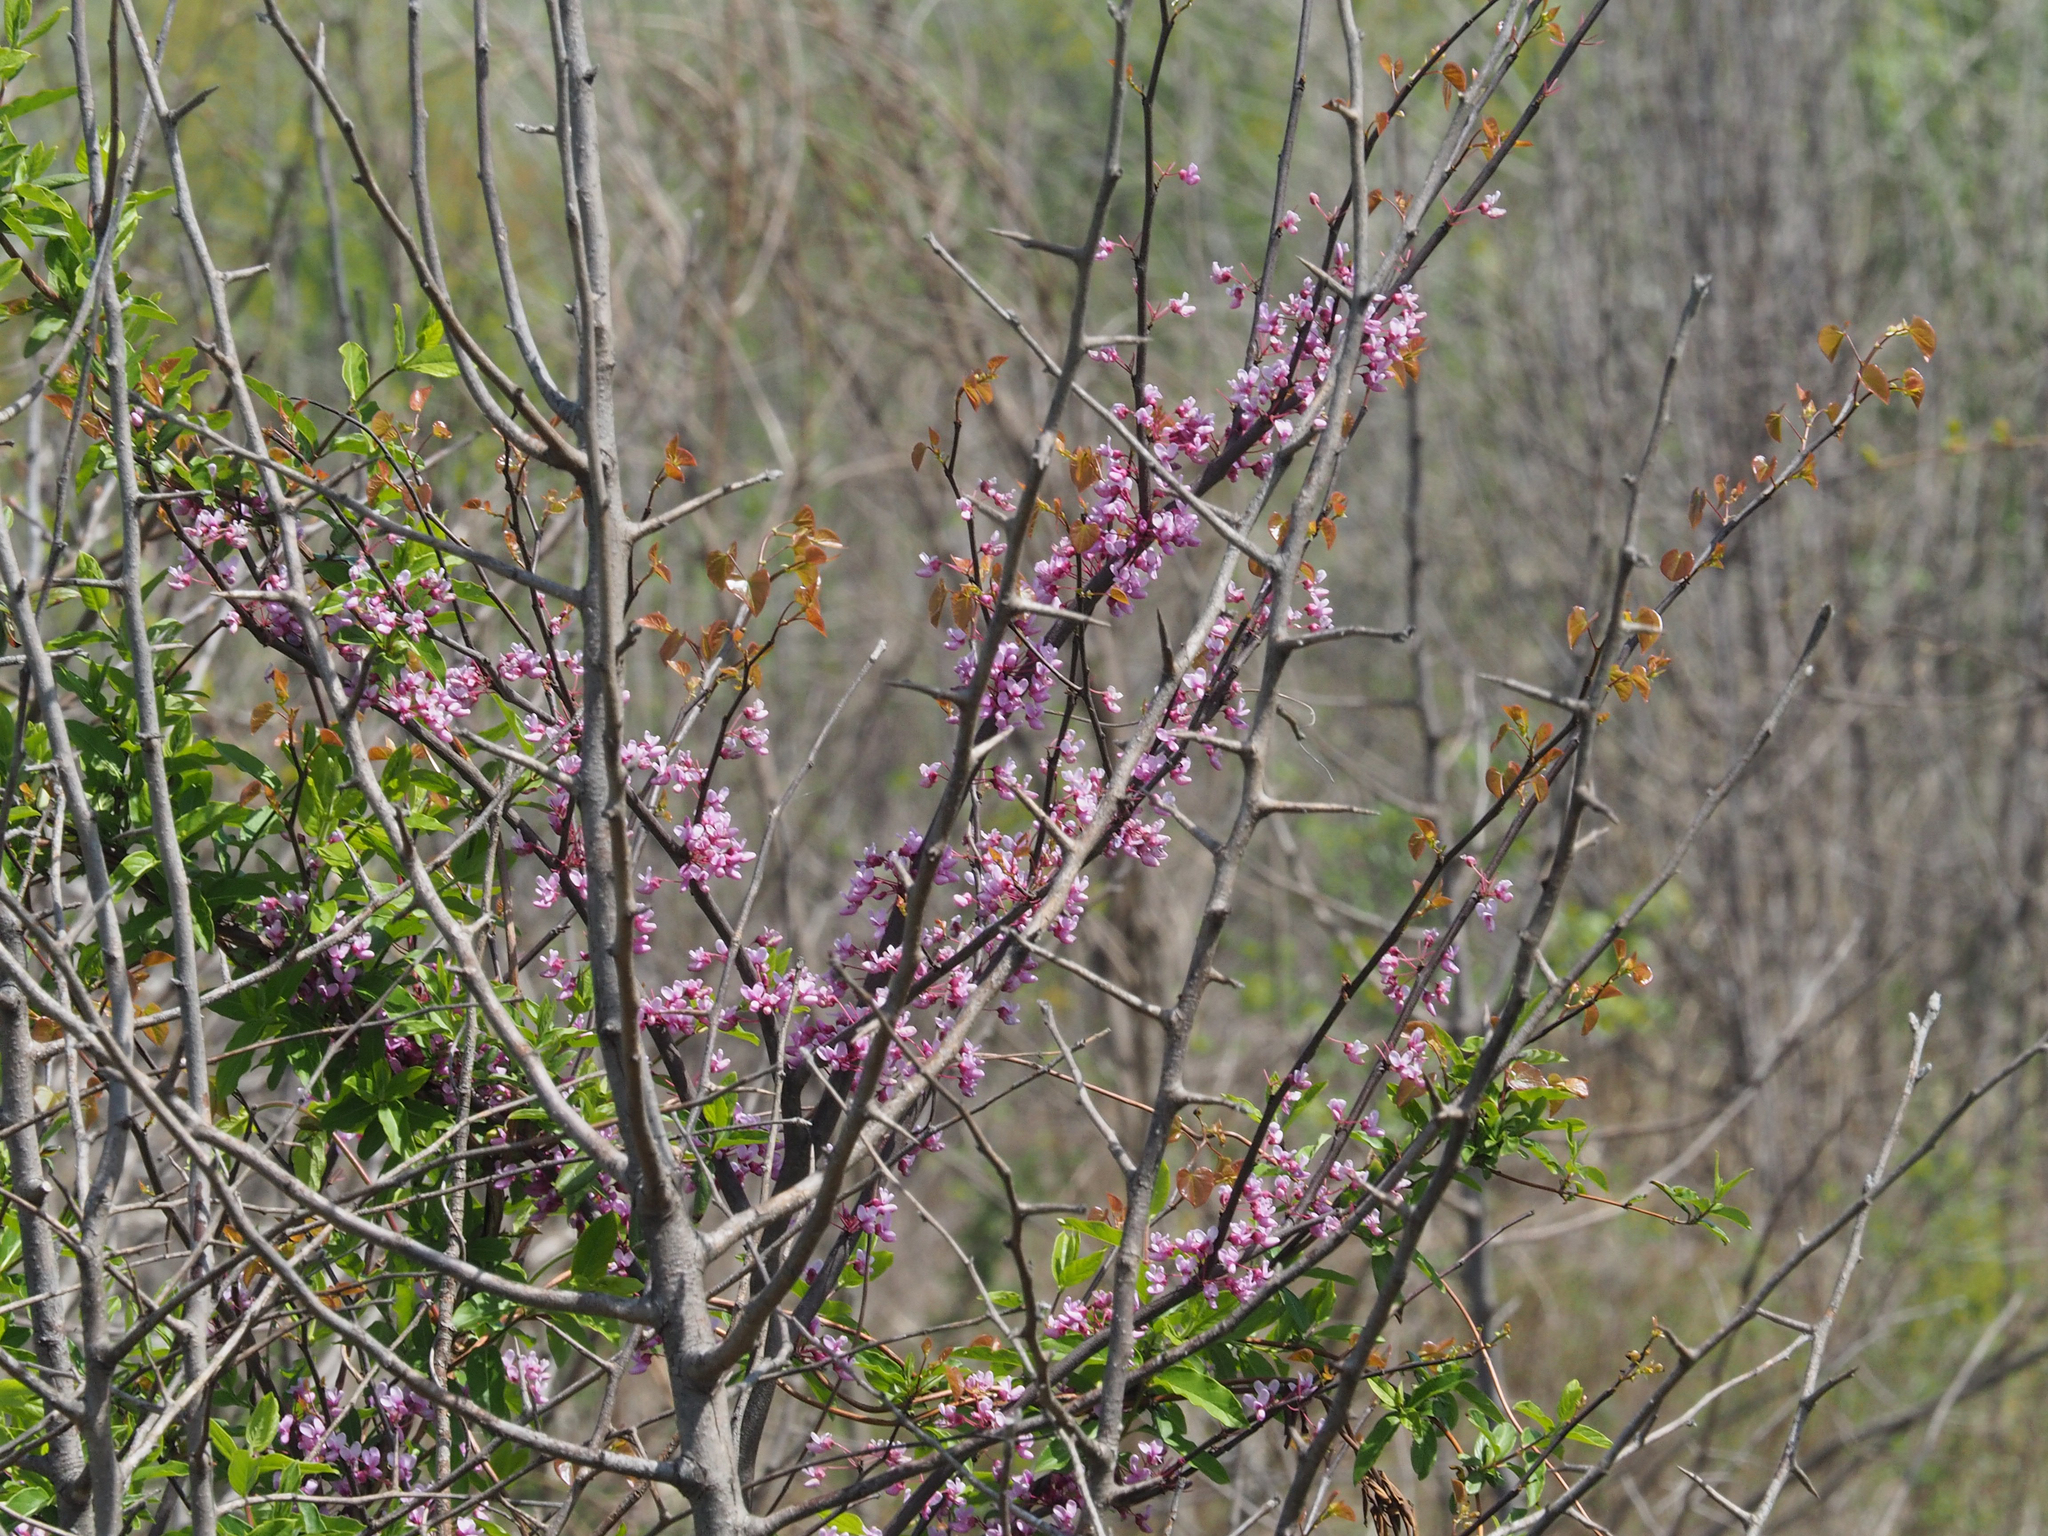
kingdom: Plantae
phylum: Tracheophyta
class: Magnoliopsida
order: Fabales
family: Fabaceae
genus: Cercis
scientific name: Cercis canadensis
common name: Eastern redbud
